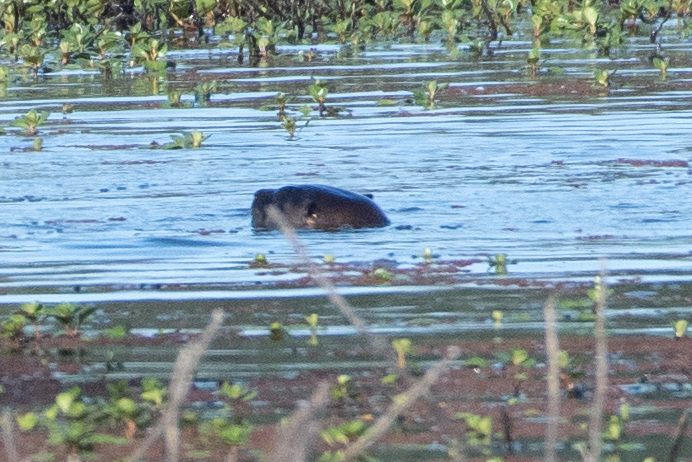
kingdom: Animalia
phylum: Chordata
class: Mammalia
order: Carnivora
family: Mustelidae
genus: Lontra
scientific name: Lontra canadensis
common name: North american river otter
